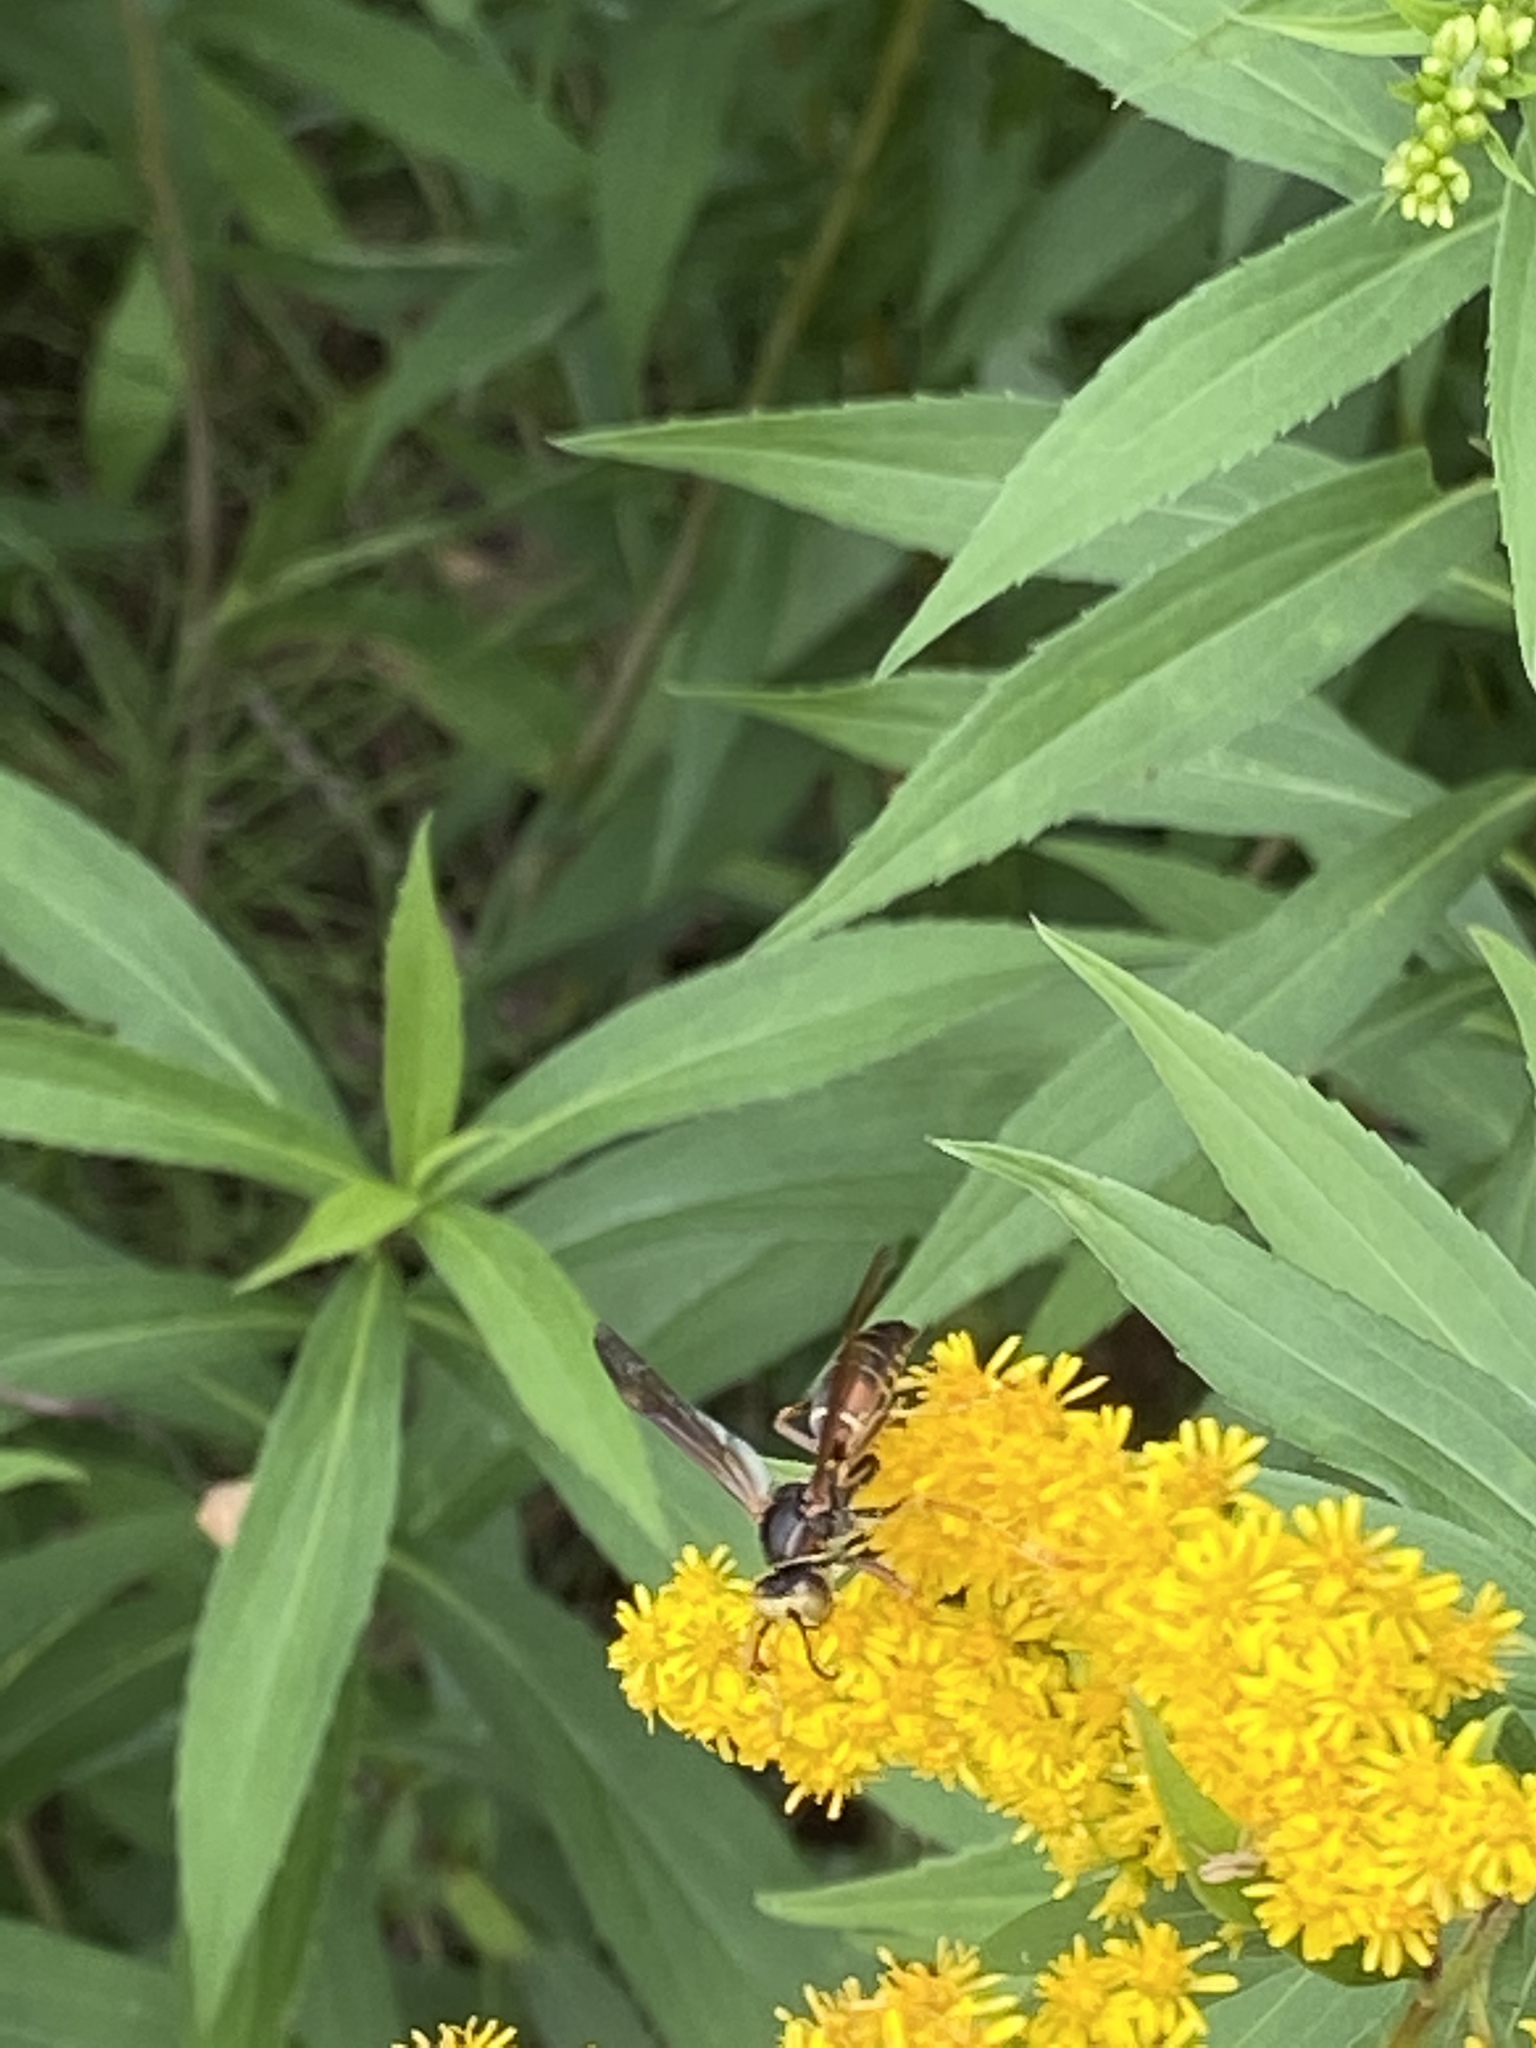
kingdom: Animalia
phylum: Arthropoda
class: Insecta
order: Hymenoptera
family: Eumenidae
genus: Polistes
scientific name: Polistes fuscatus
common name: Dark paper wasp
